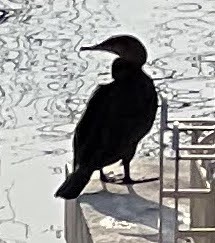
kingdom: Animalia
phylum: Chordata
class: Aves
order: Suliformes
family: Phalacrocoracidae
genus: Phalacrocorax
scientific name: Phalacrocorax carbo
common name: Great cormorant
